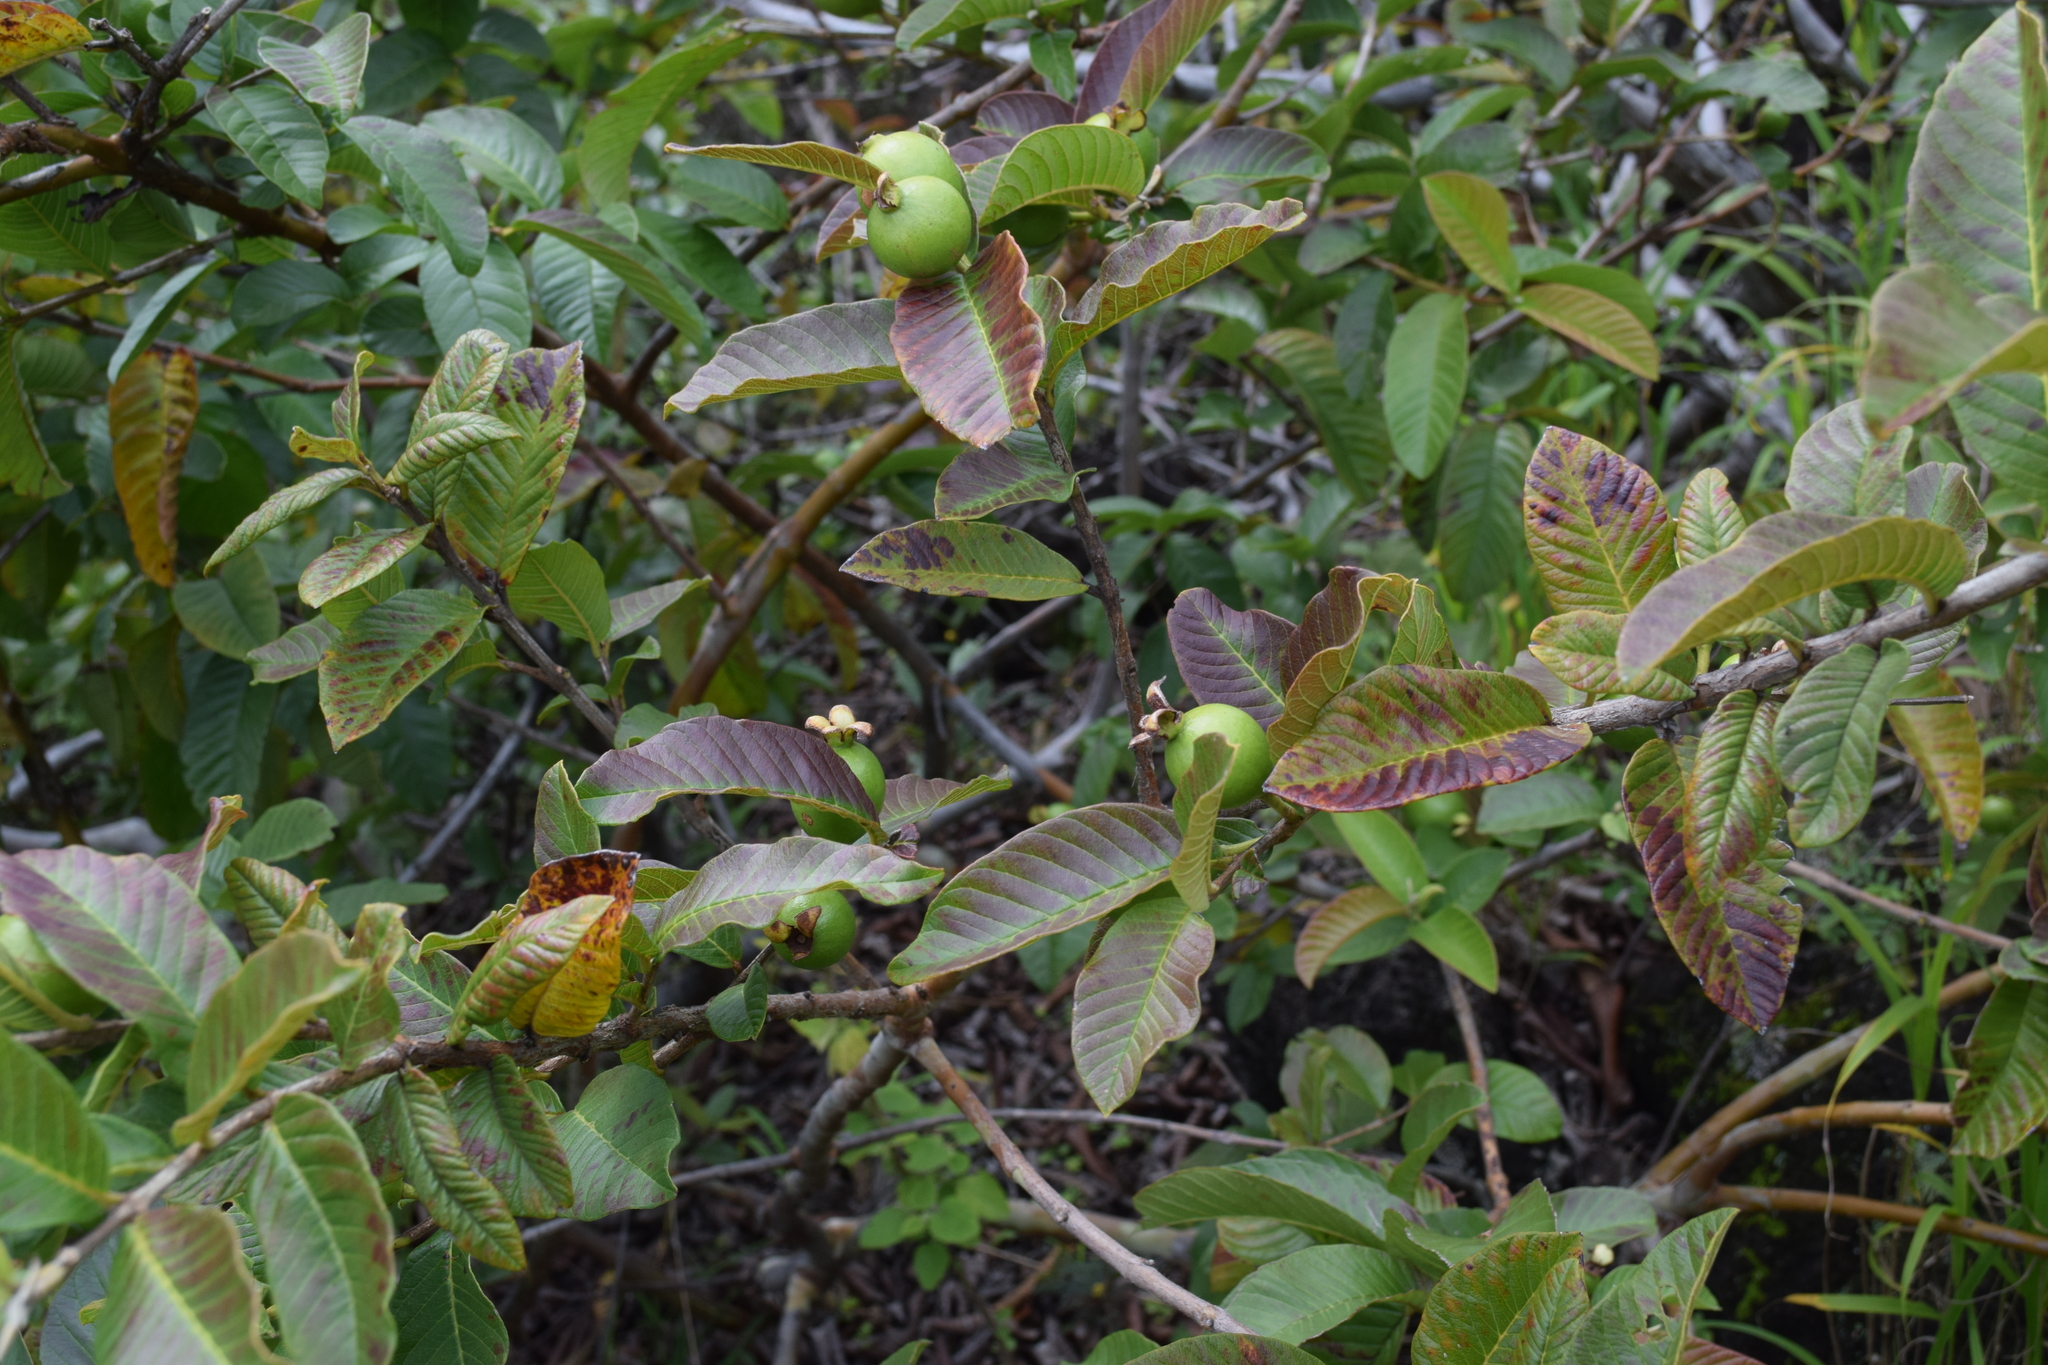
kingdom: Plantae
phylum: Tracheophyta
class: Magnoliopsida
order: Myrtales
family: Myrtaceae
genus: Psidium
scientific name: Psidium guajava
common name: Guava
